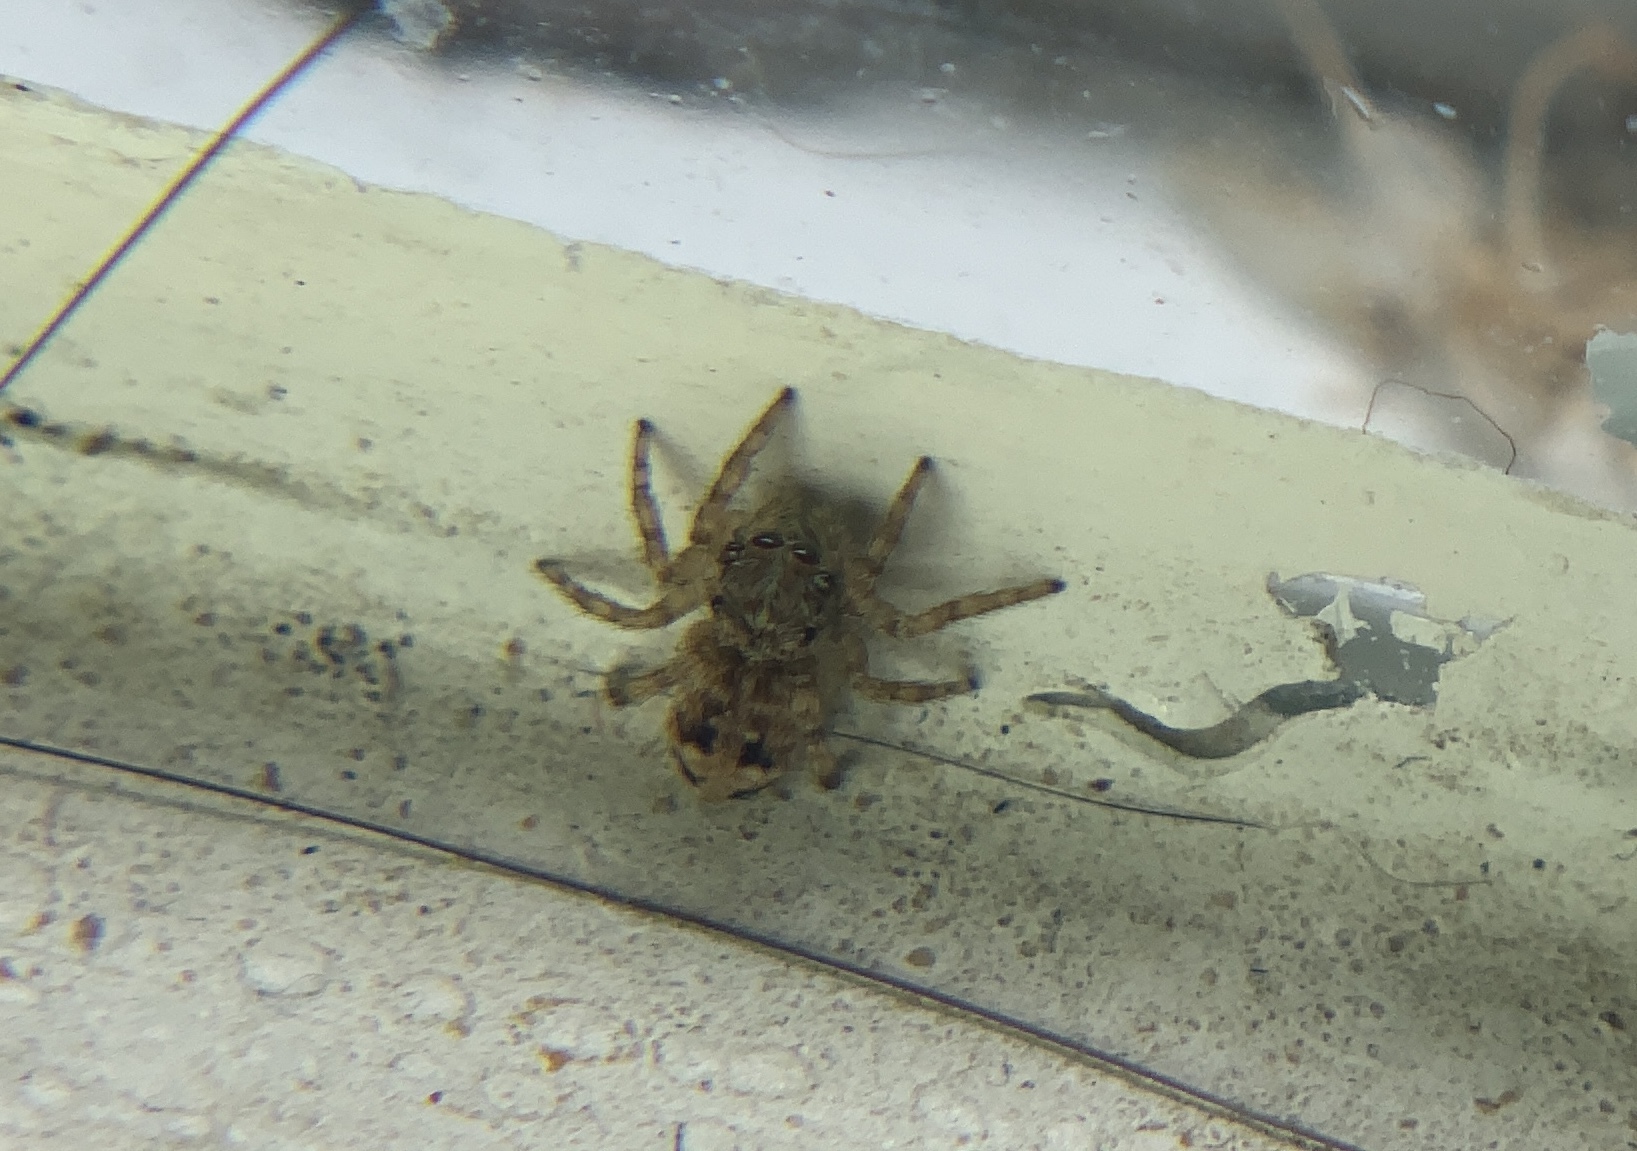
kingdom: Animalia
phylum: Arthropoda
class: Arachnida
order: Araneae
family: Salticidae
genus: Attulus
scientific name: Attulus fasciger
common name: Asiatic wall jumping spider
